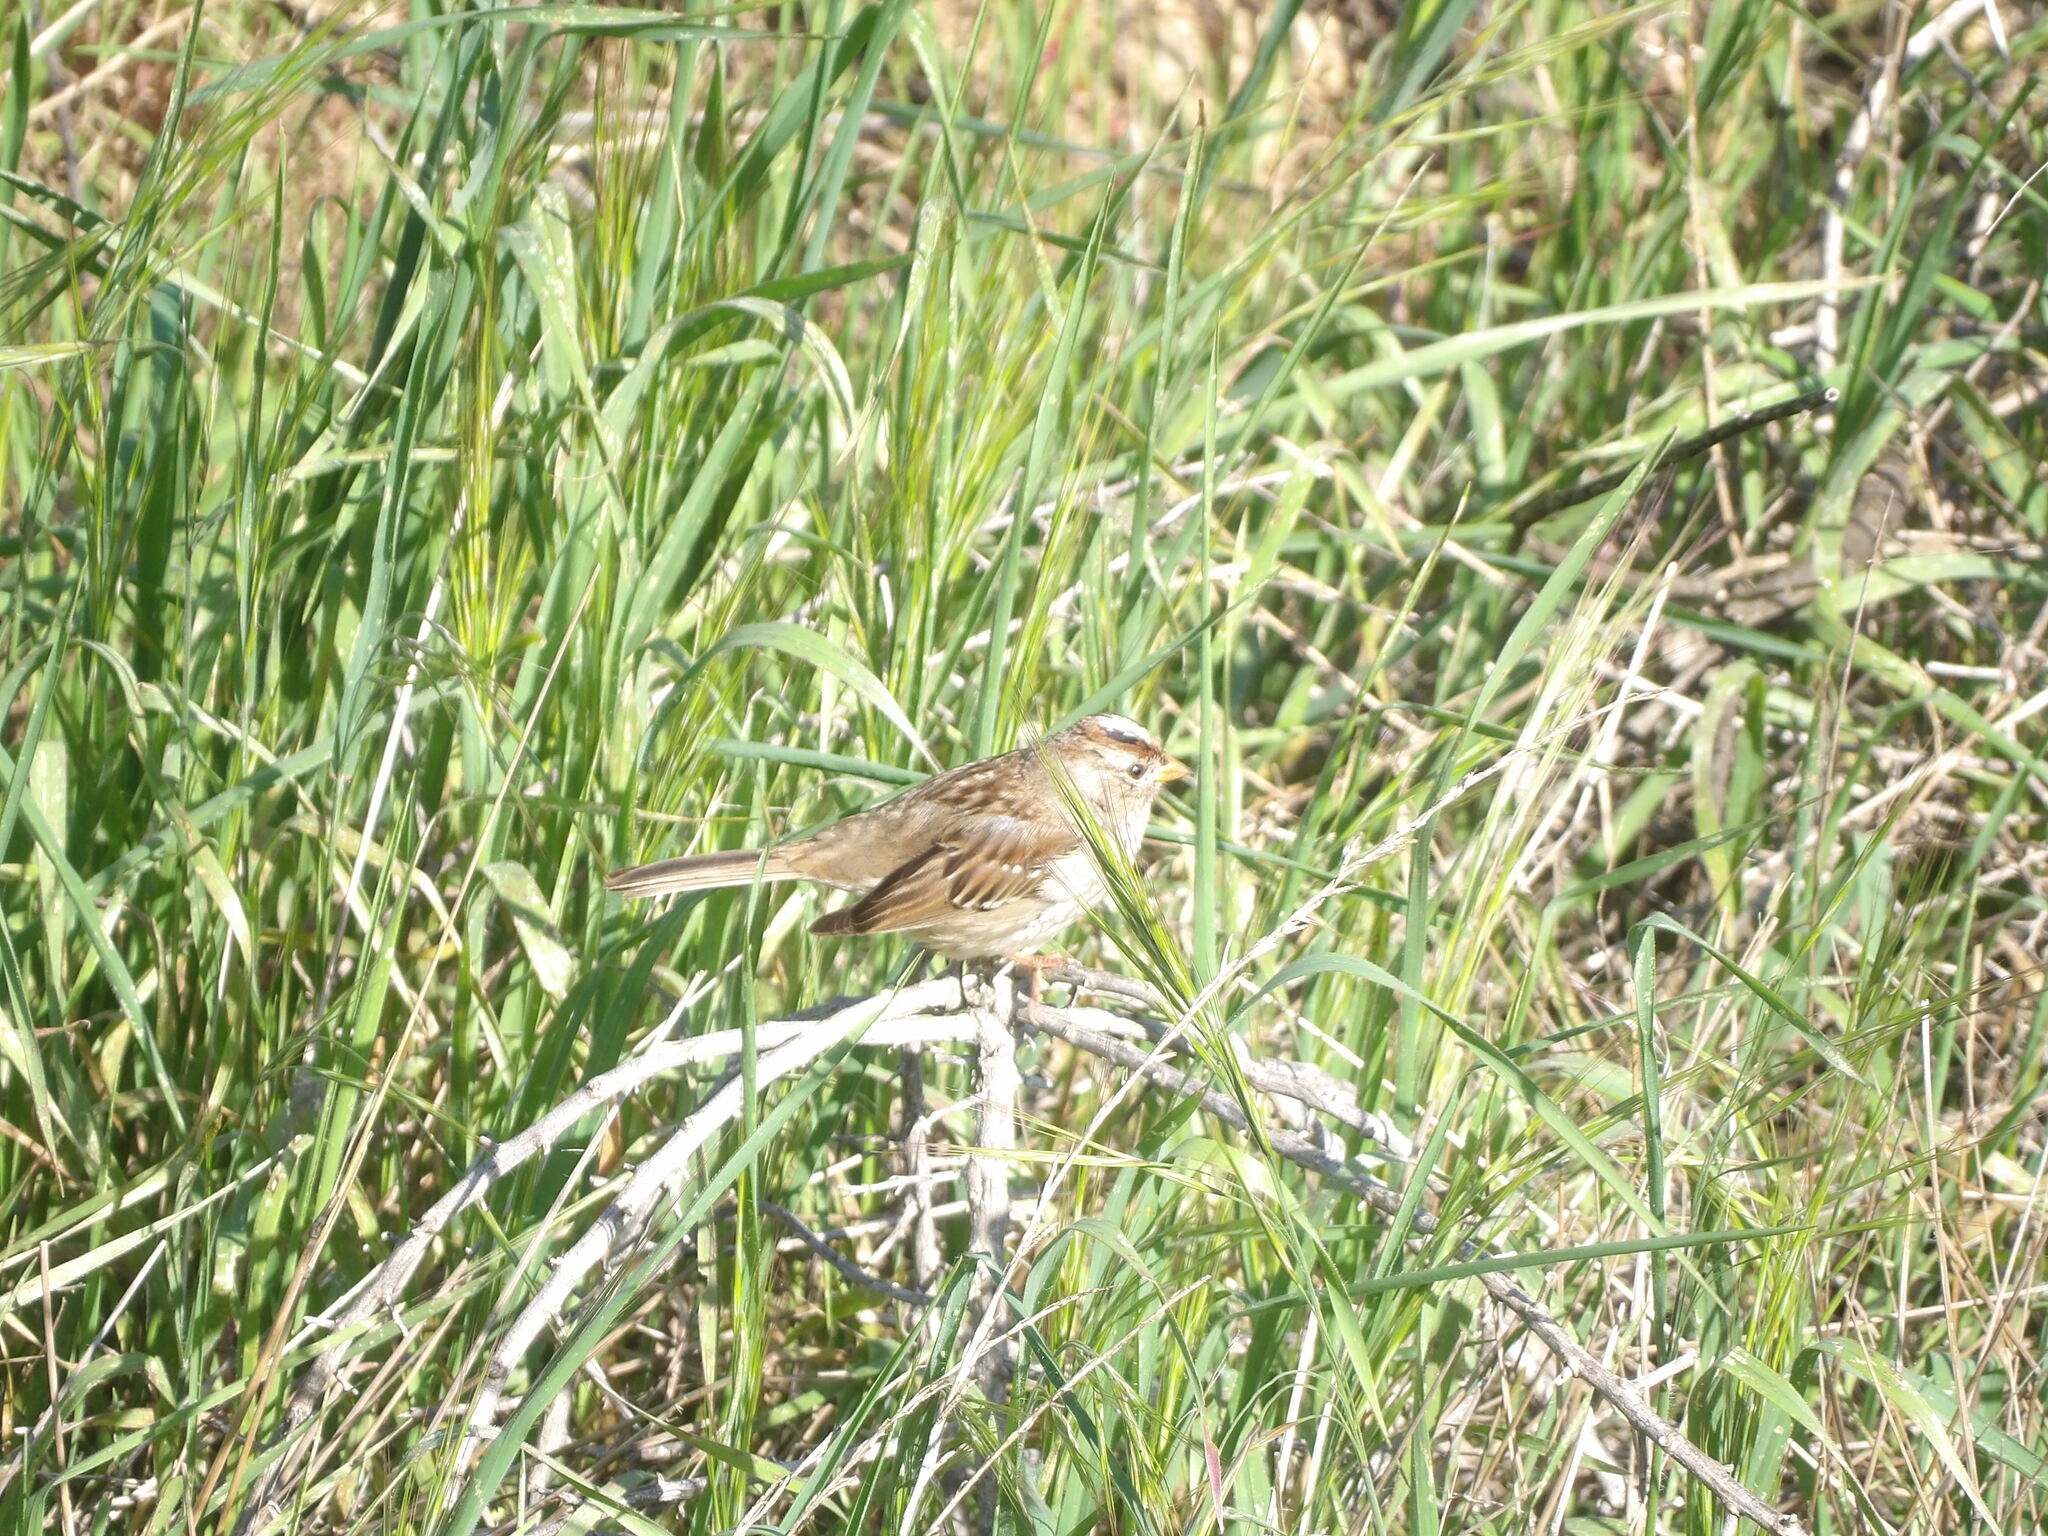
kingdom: Animalia
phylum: Chordata
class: Aves
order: Passeriformes
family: Passerellidae
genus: Zonotrichia
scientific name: Zonotrichia leucophrys
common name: White-crowned sparrow
